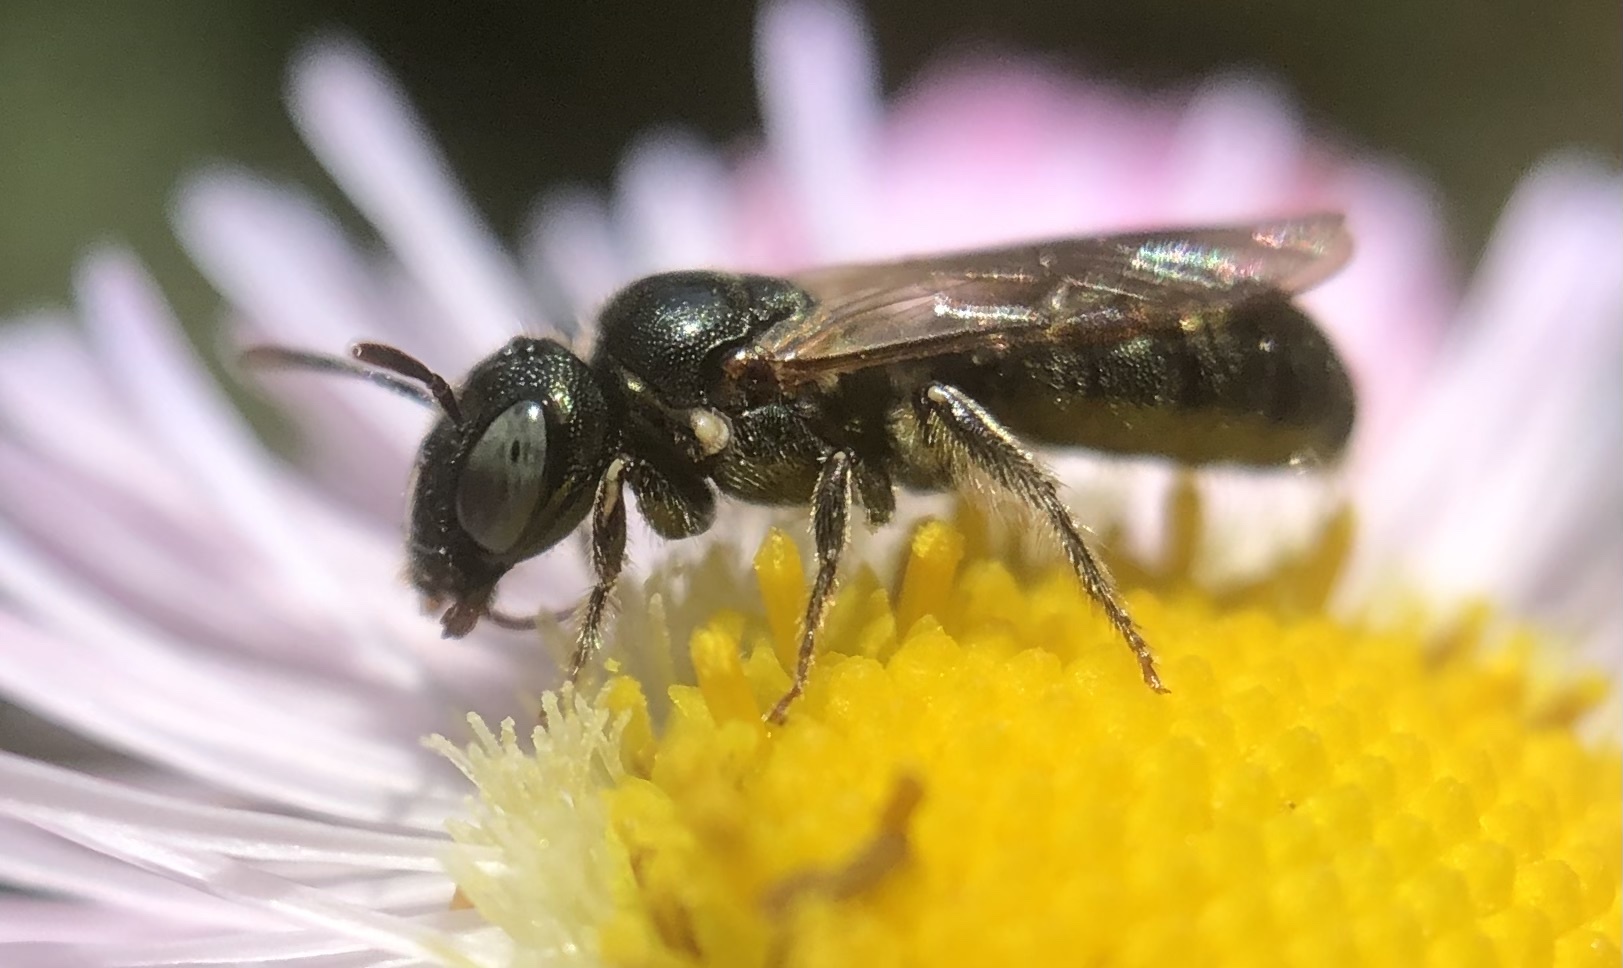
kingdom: Animalia
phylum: Arthropoda
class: Insecta
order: Hymenoptera
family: Apidae
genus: Ceratina
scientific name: Ceratina strenua
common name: Nimble carpenter bee
